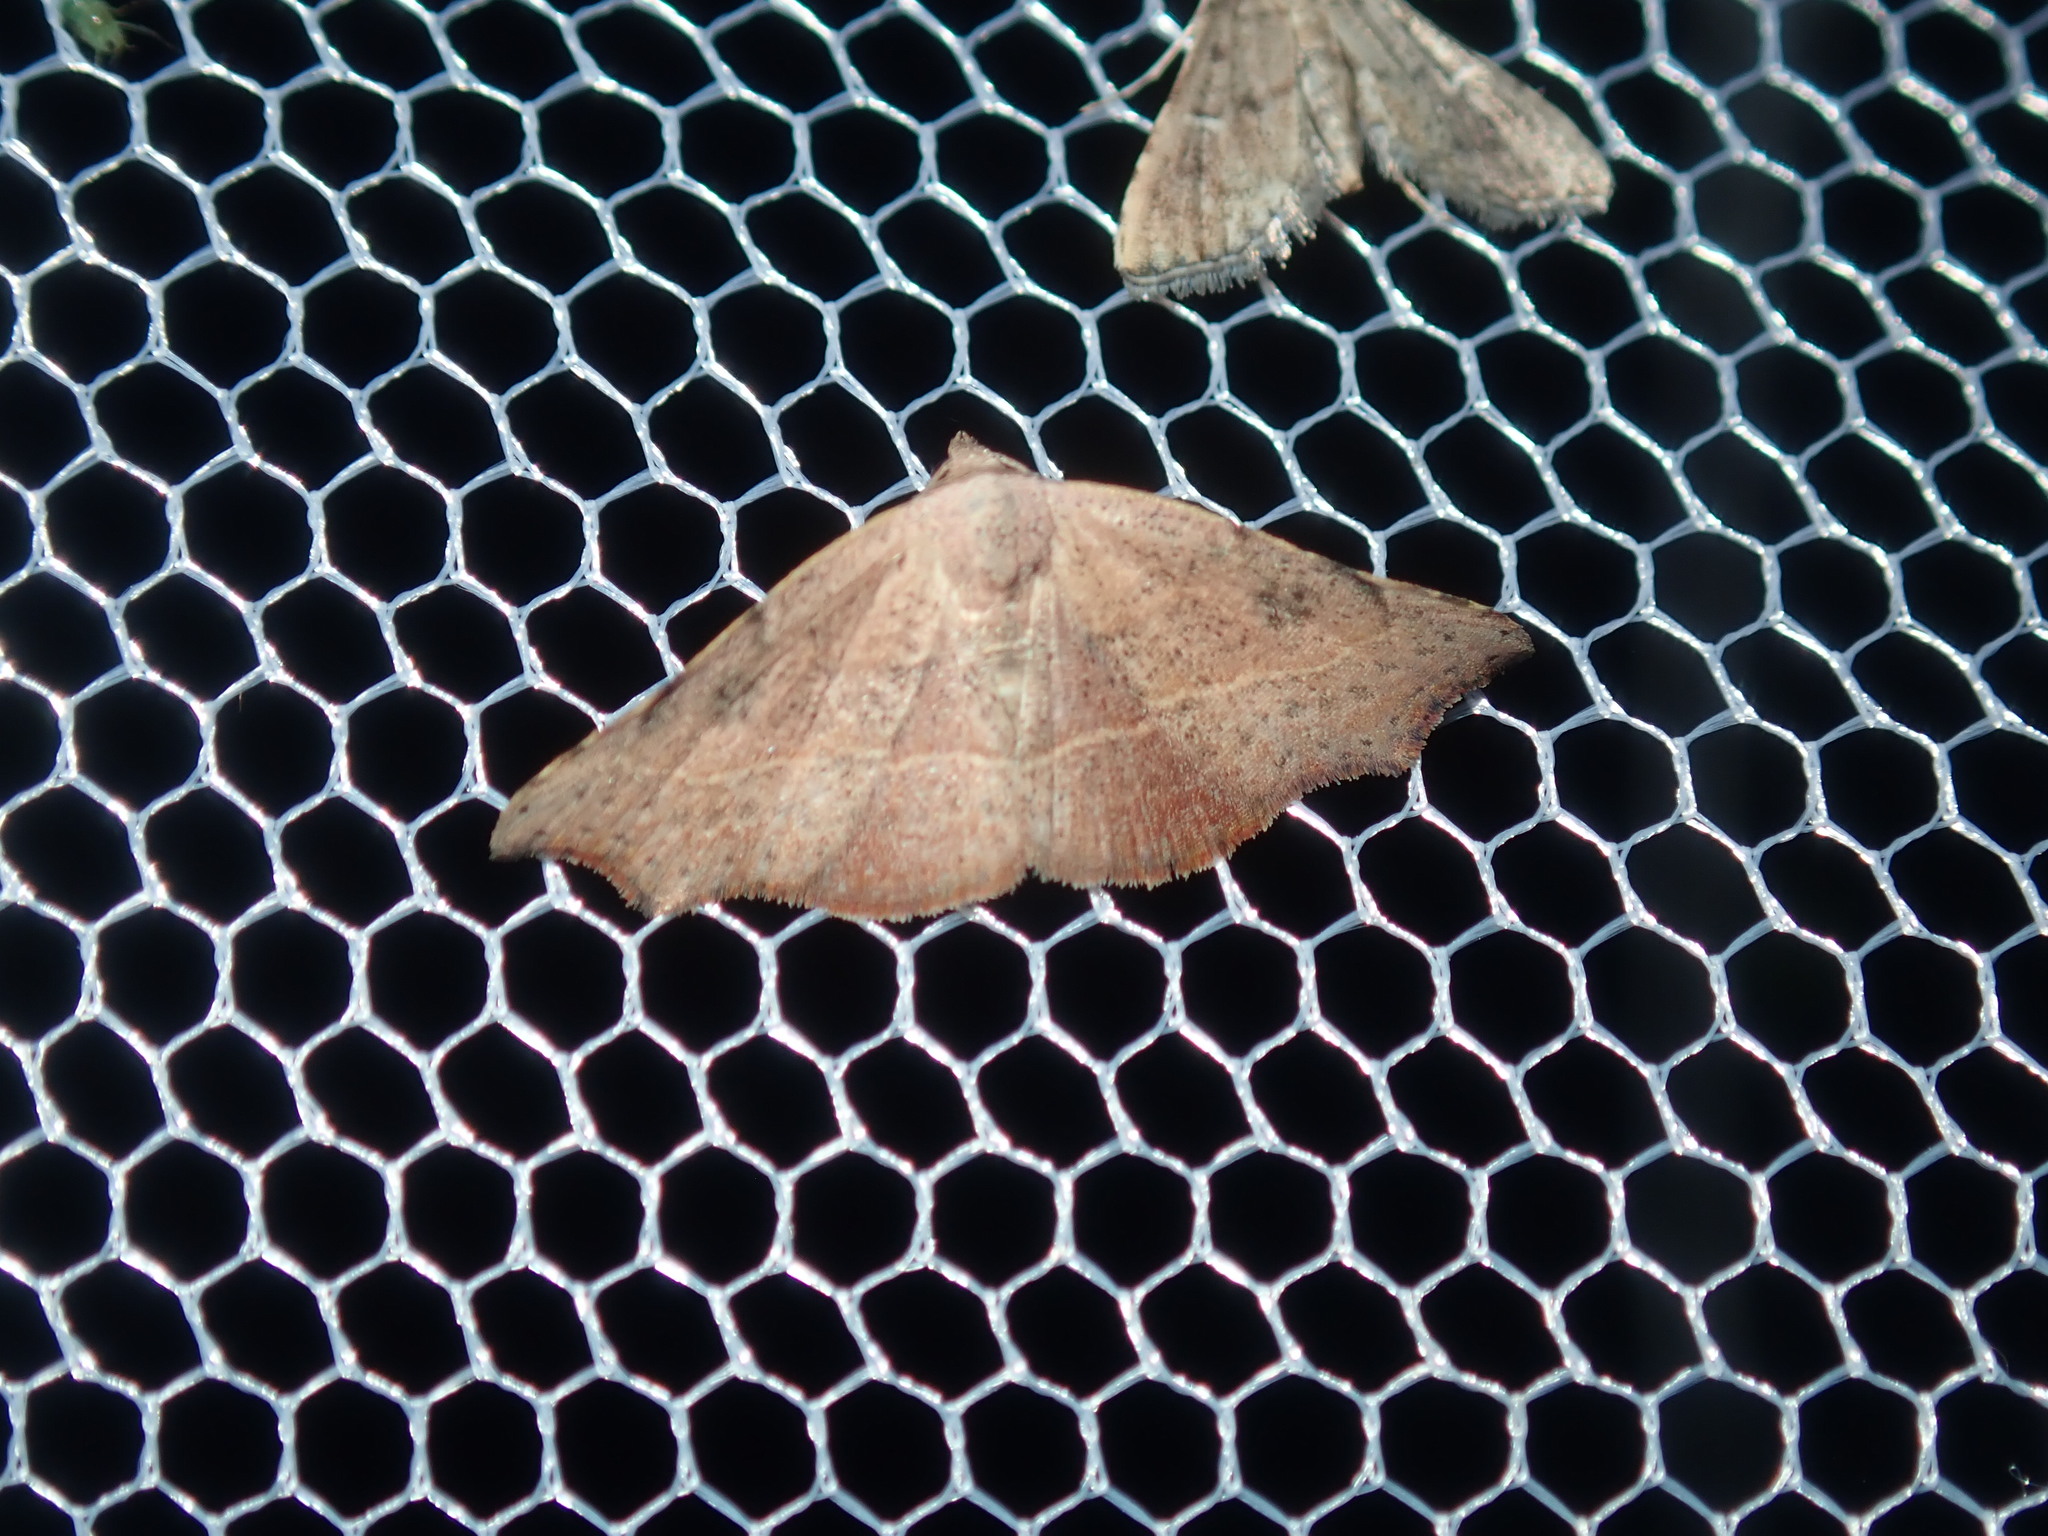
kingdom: Animalia
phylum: Arthropoda
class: Insecta
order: Lepidoptera
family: Erebidae
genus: Laspeyria
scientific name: Laspeyria concavata
